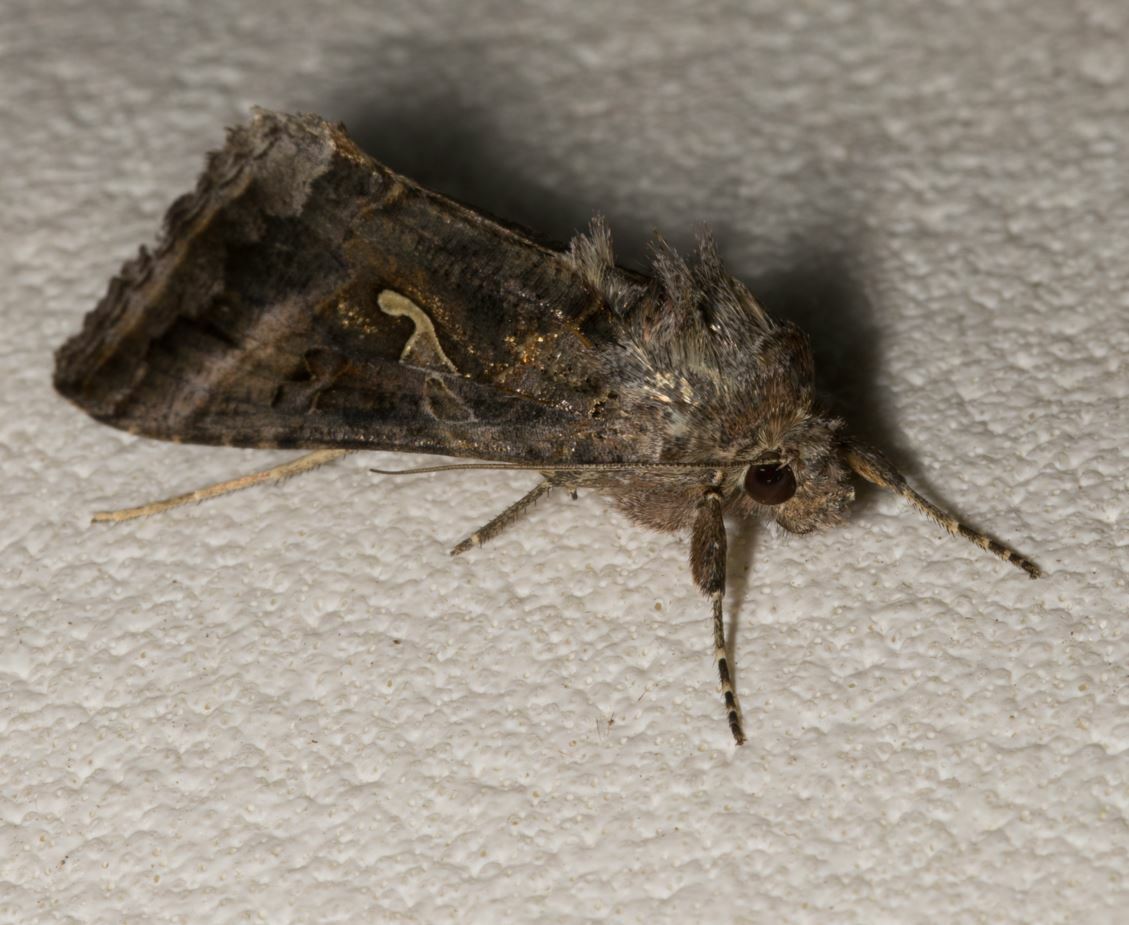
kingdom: Animalia
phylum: Arthropoda
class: Insecta
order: Lepidoptera
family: Noctuidae
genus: Autographa
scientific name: Autographa gamma
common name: Silver y
